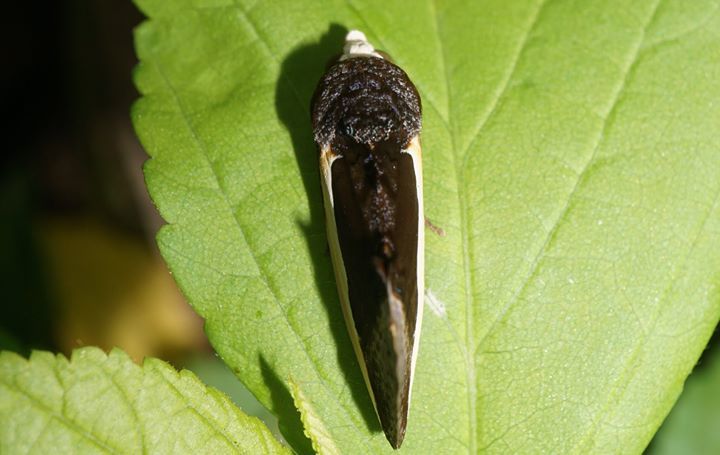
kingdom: Animalia
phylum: Arthropoda
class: Insecta
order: Lepidoptera
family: Erebidae
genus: Gonodonta
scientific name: Gonodonta nutrix
